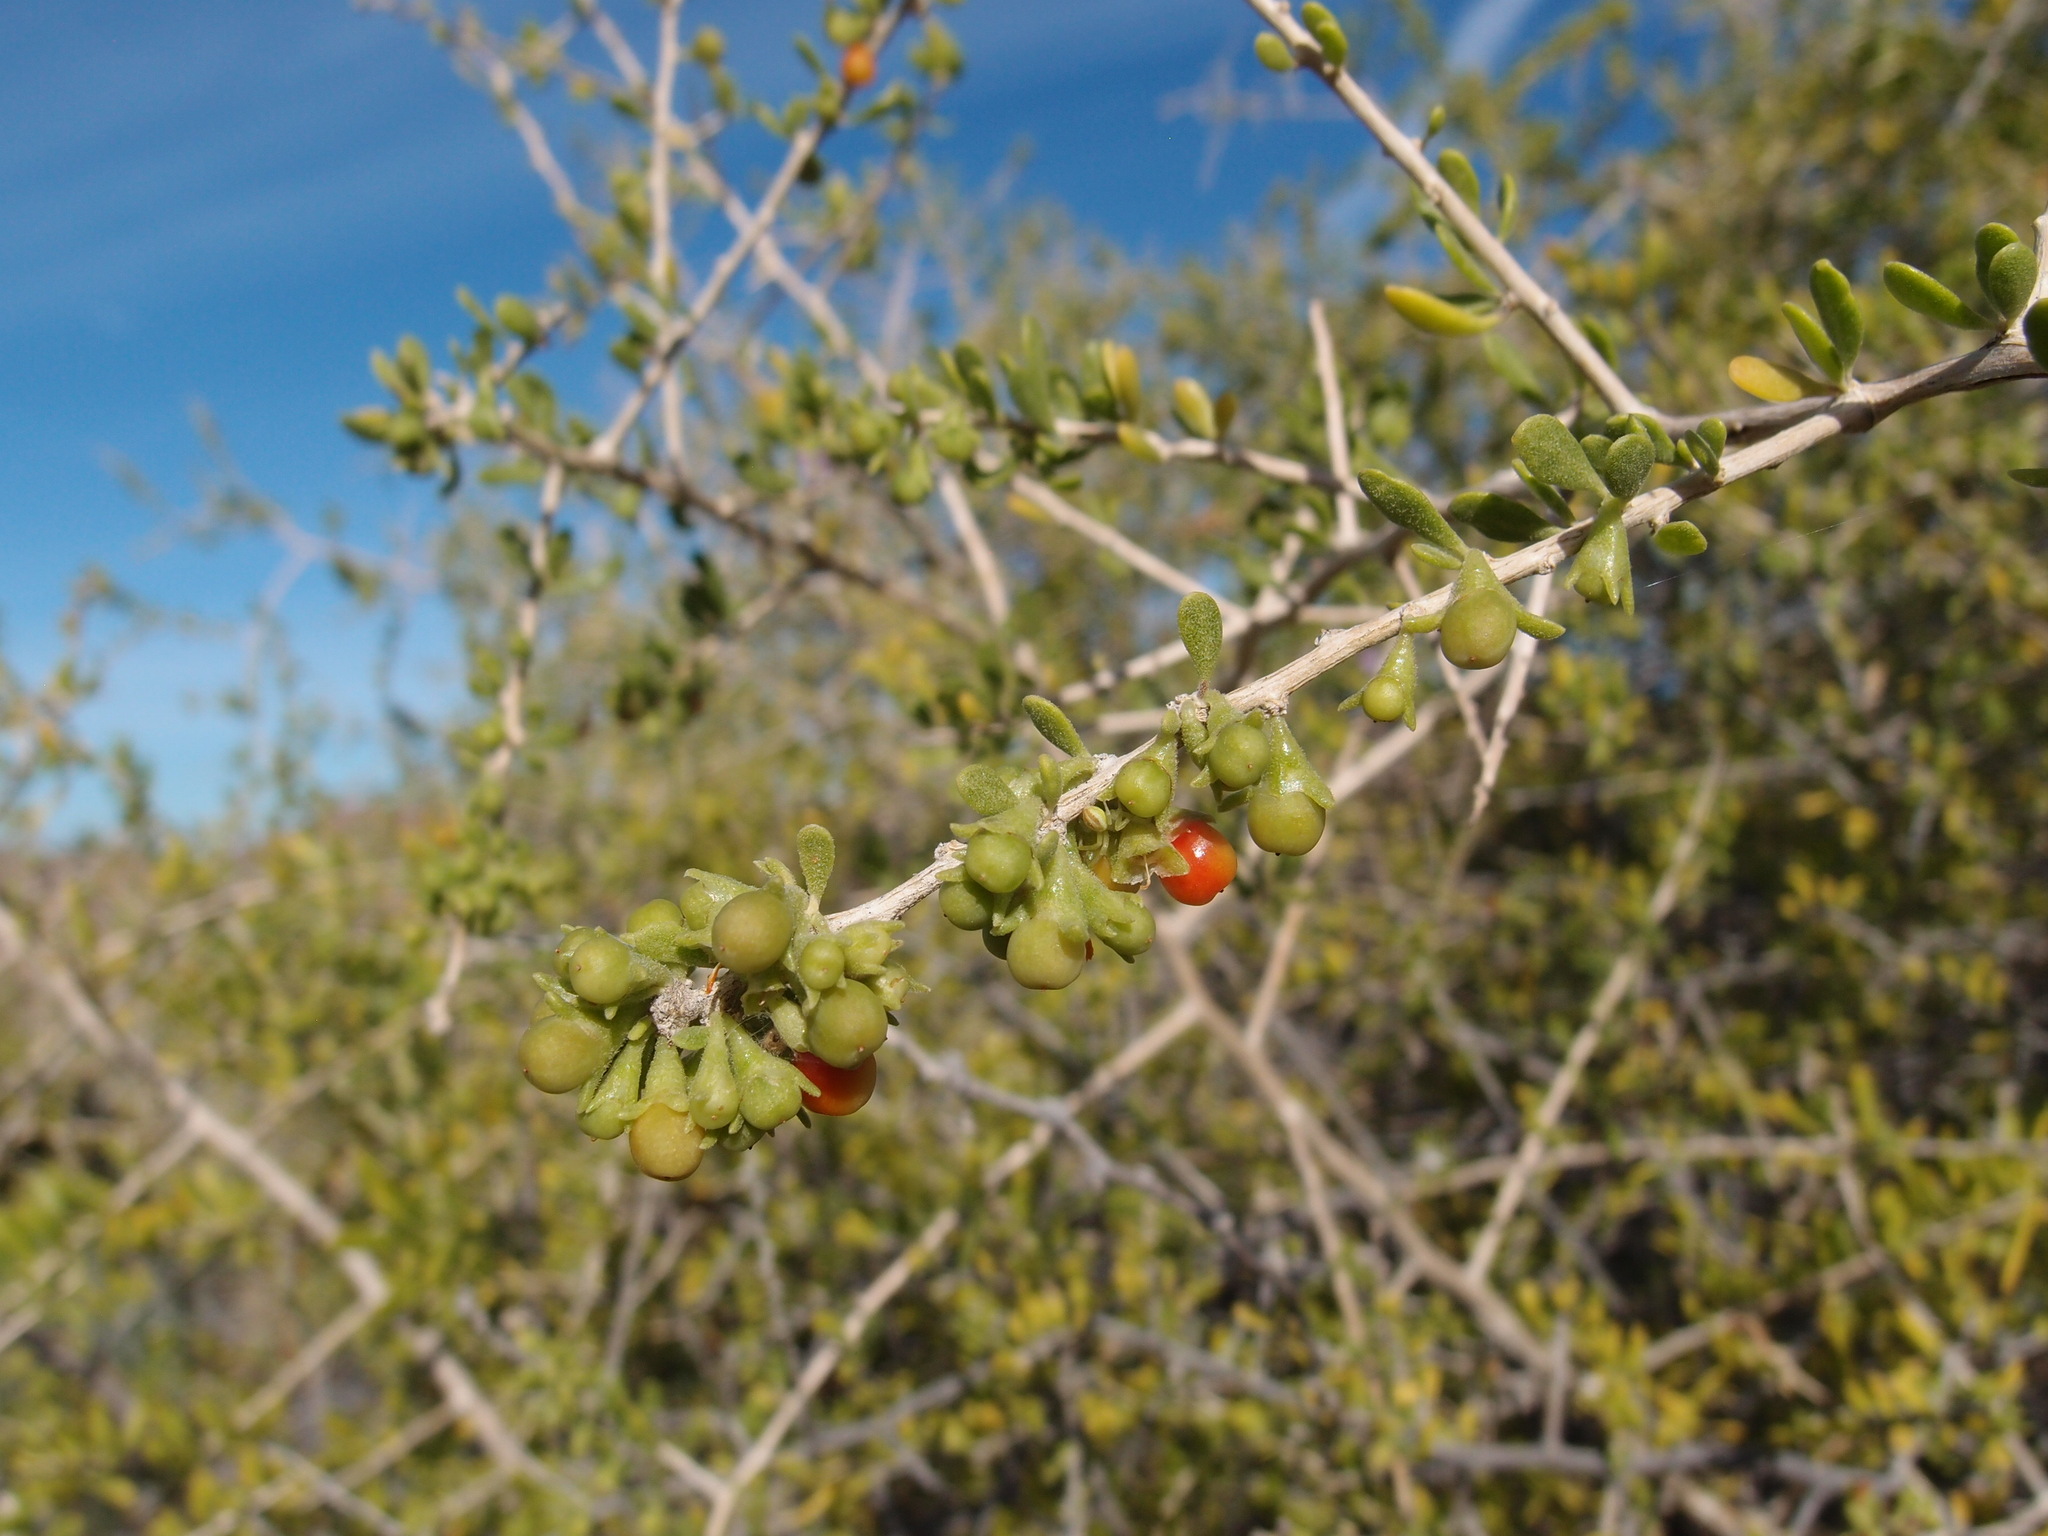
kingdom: Plantae
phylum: Tracheophyta
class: Magnoliopsida
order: Solanales
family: Solanaceae
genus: Lycium
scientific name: Lycium brevipes
